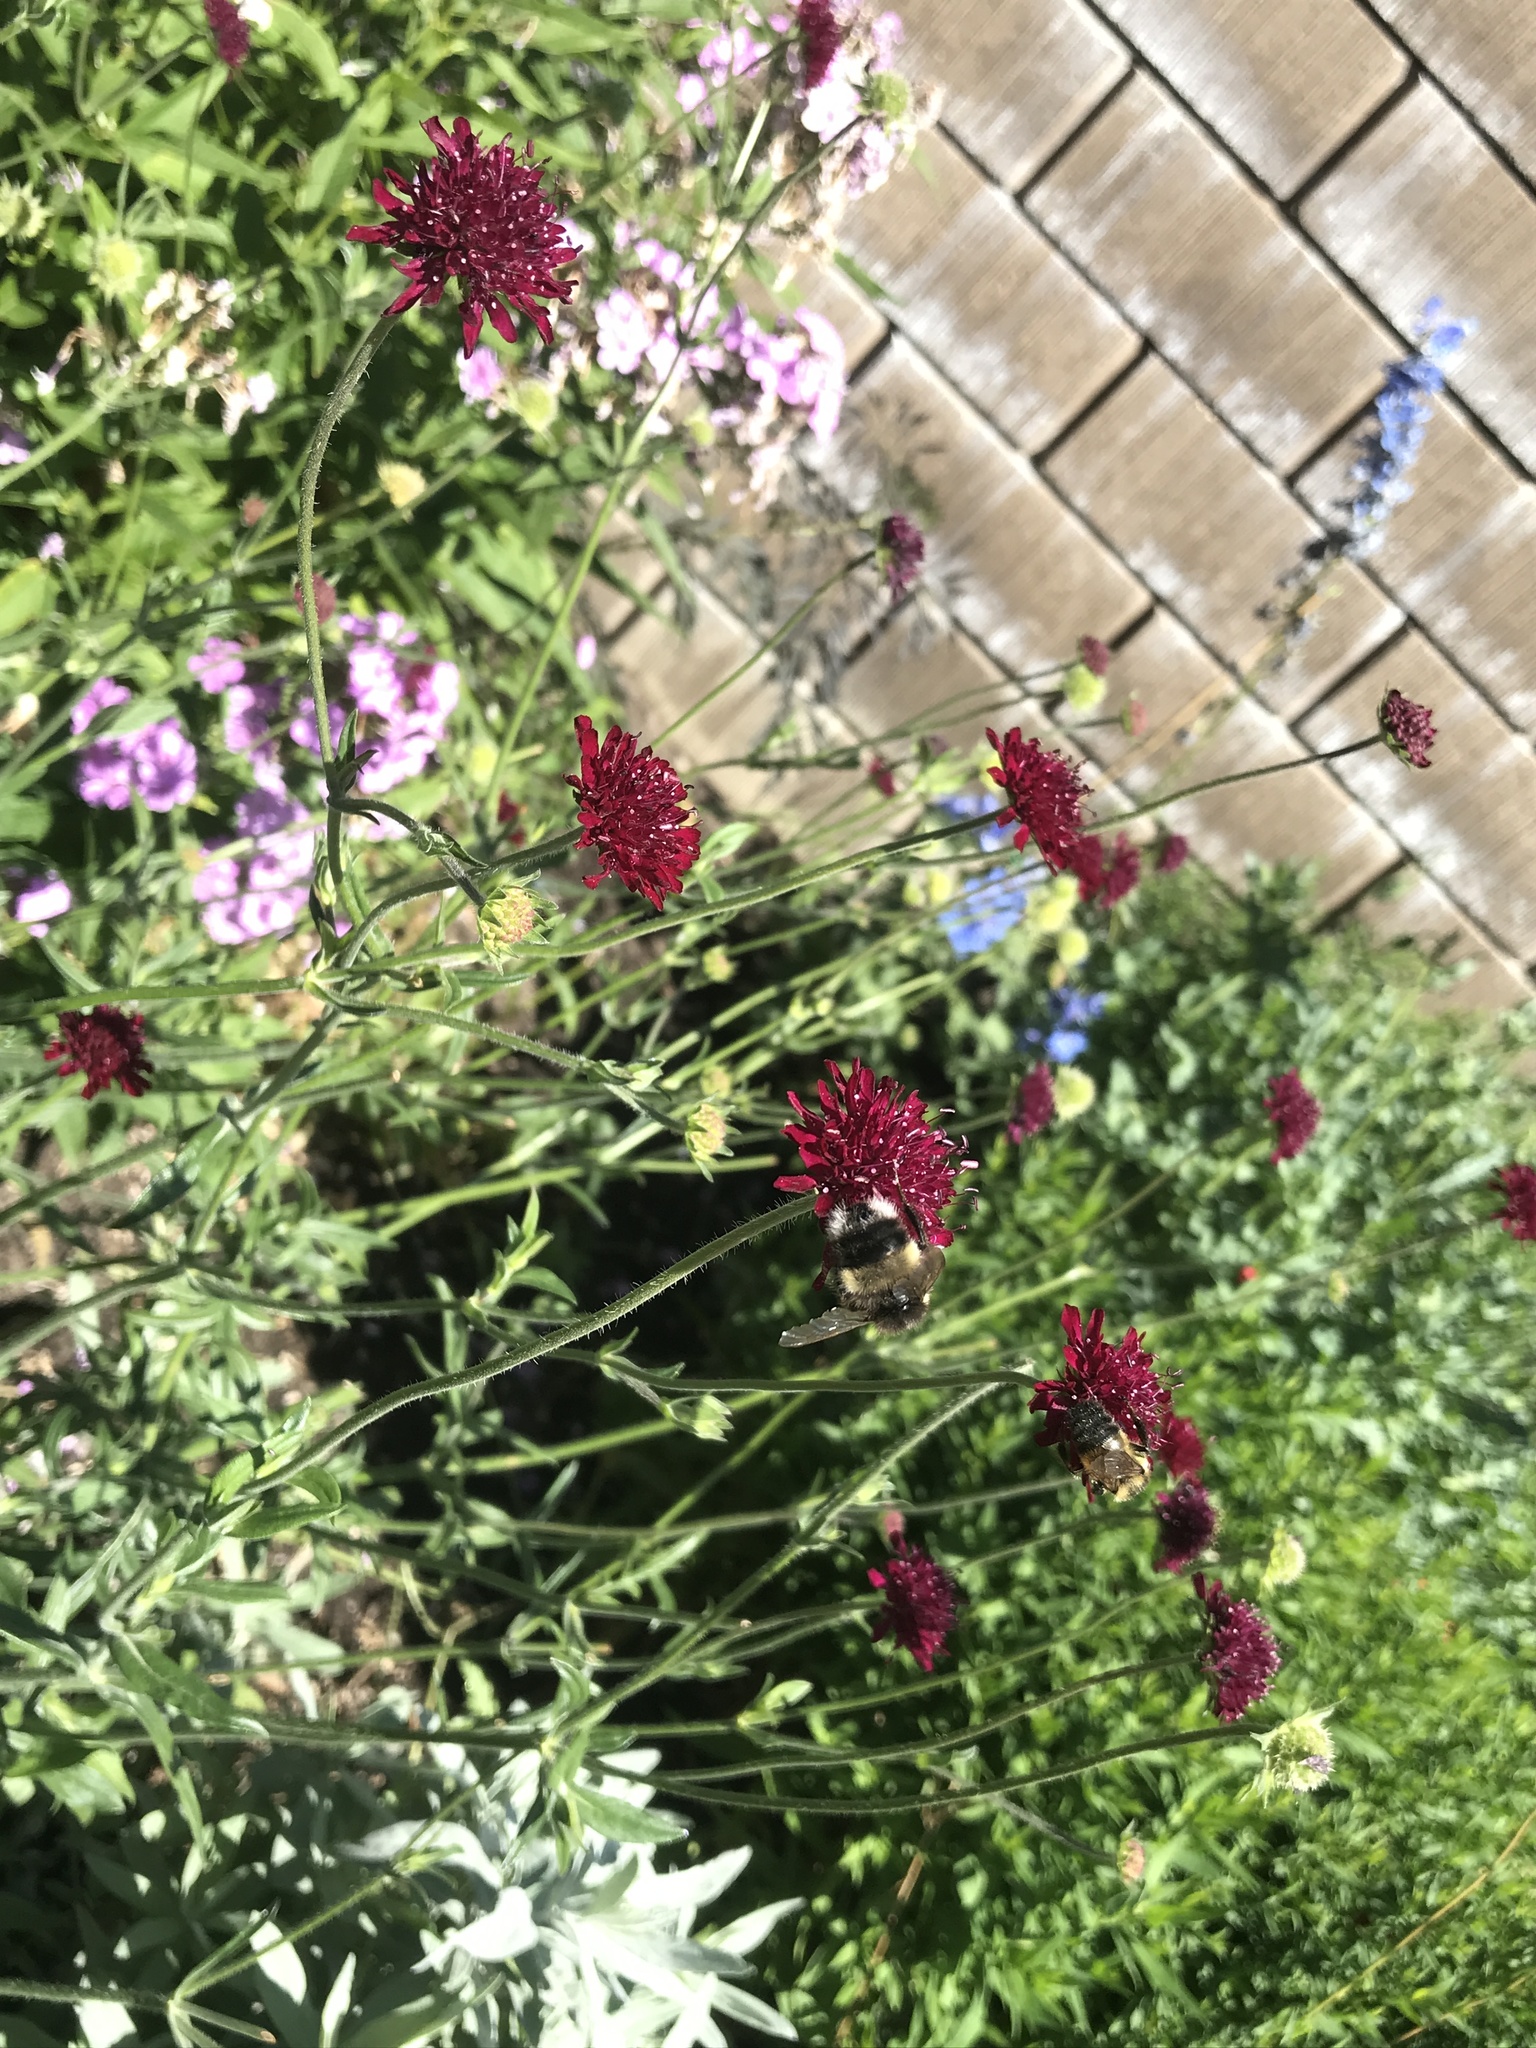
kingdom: Animalia
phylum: Arthropoda
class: Insecta
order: Hymenoptera
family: Apidae
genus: Bombus
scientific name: Bombus cryptarum
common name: Cryptic bumblebee
